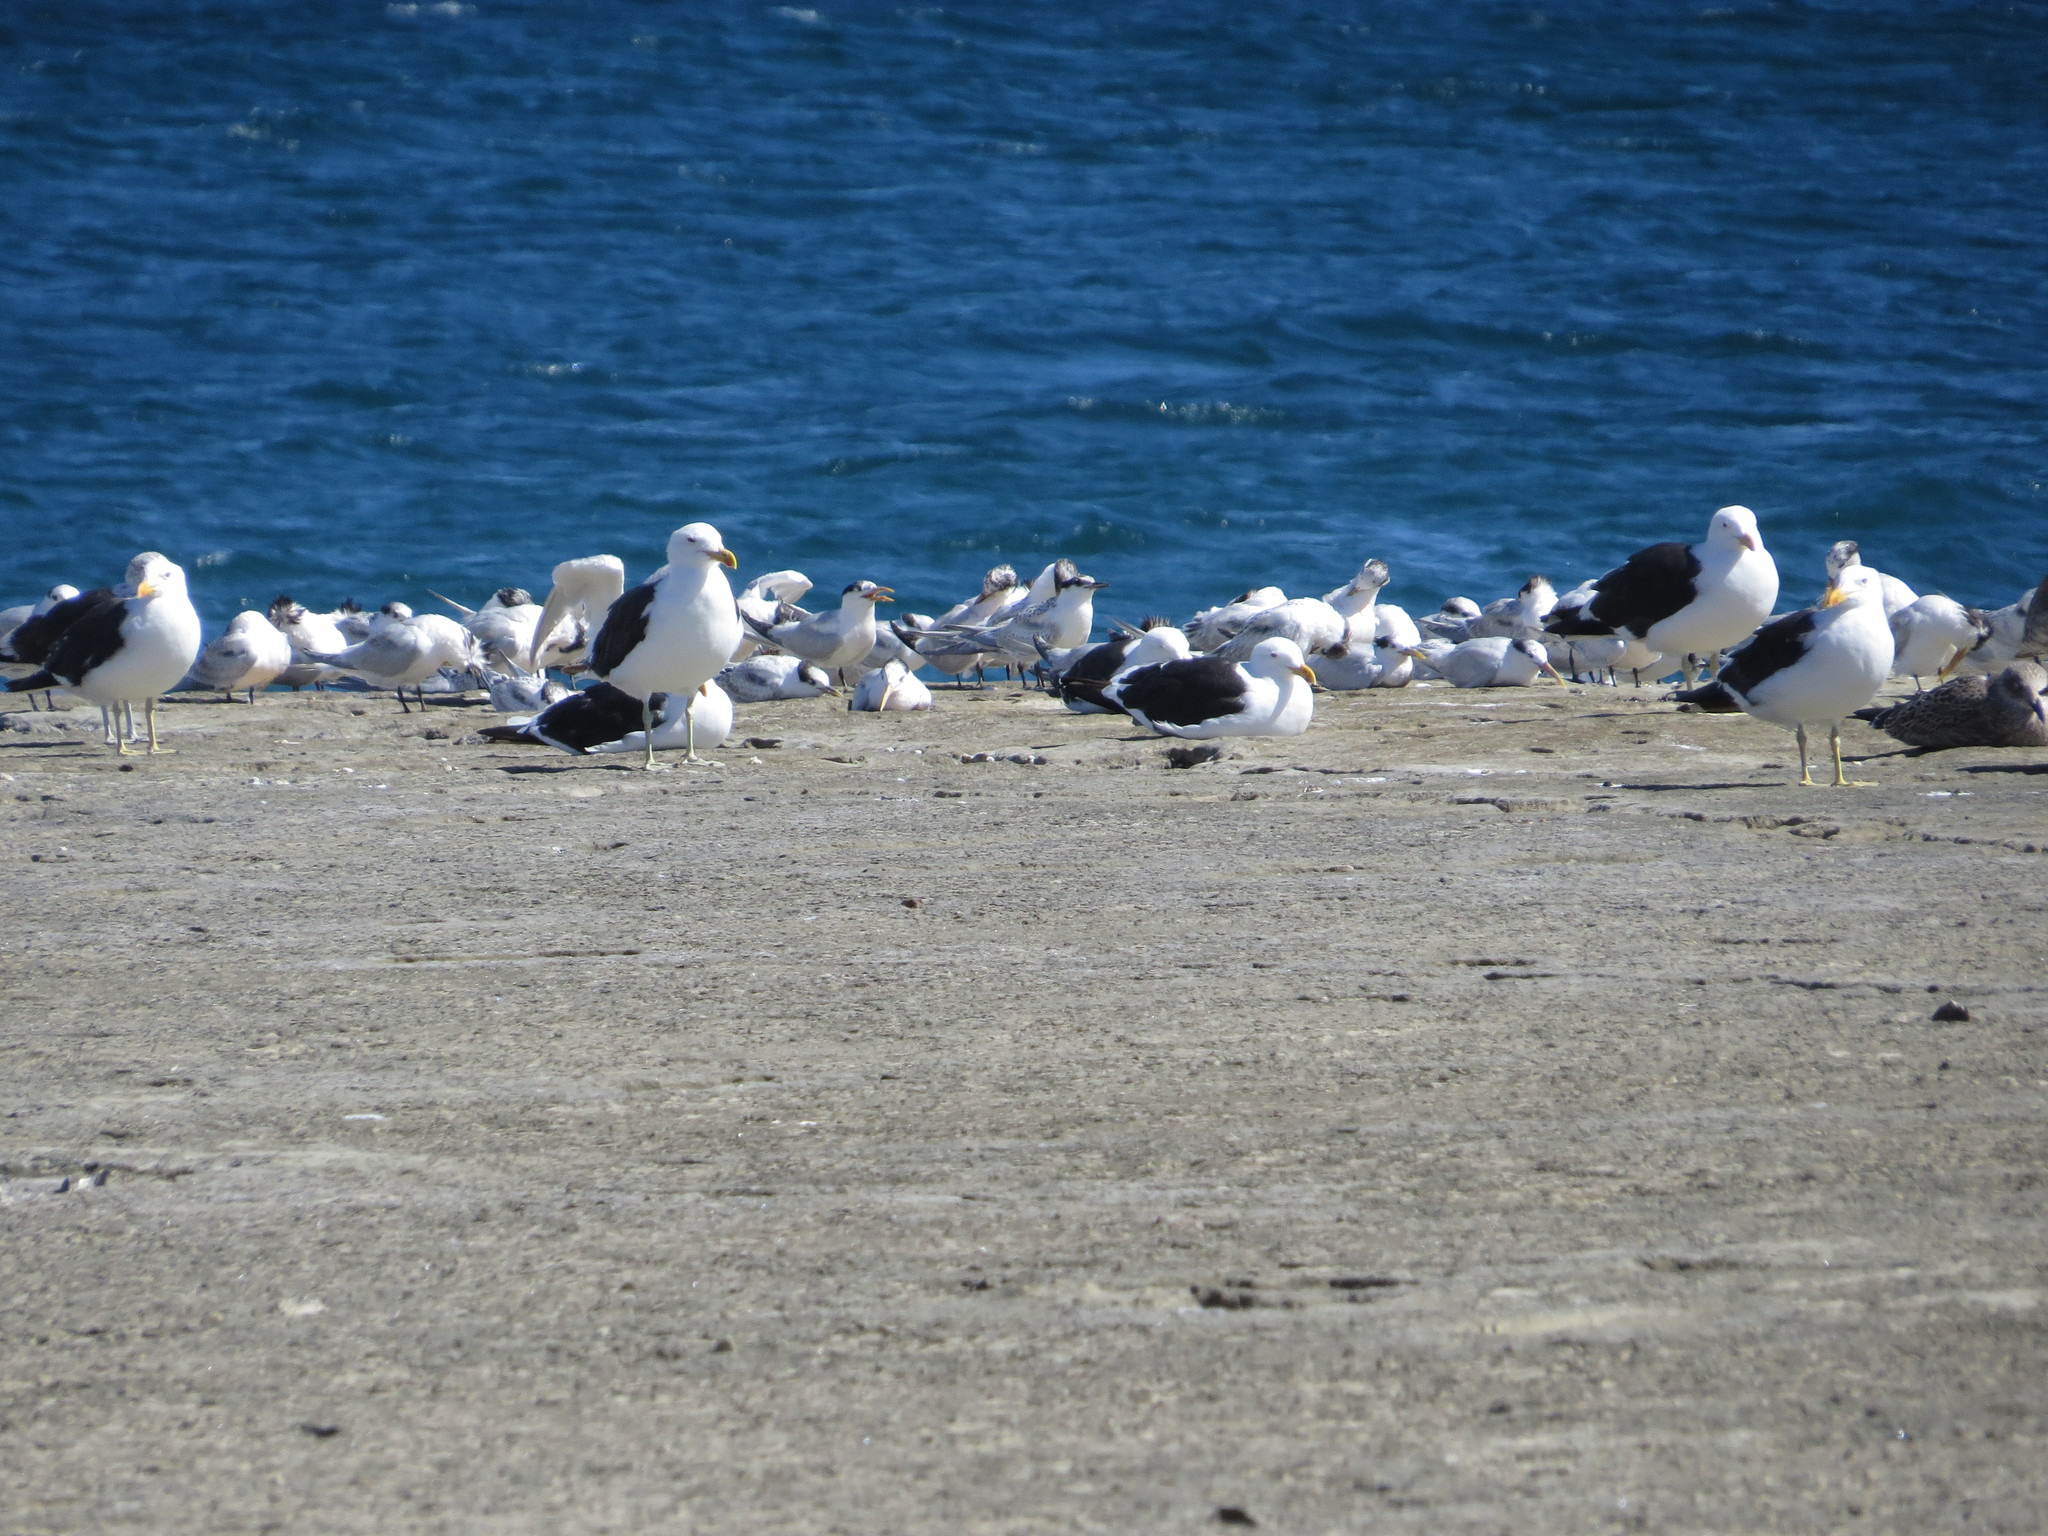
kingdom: Animalia
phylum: Chordata
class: Aves
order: Charadriiformes
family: Laridae
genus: Larus
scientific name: Larus dominicanus
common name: Kelp gull
